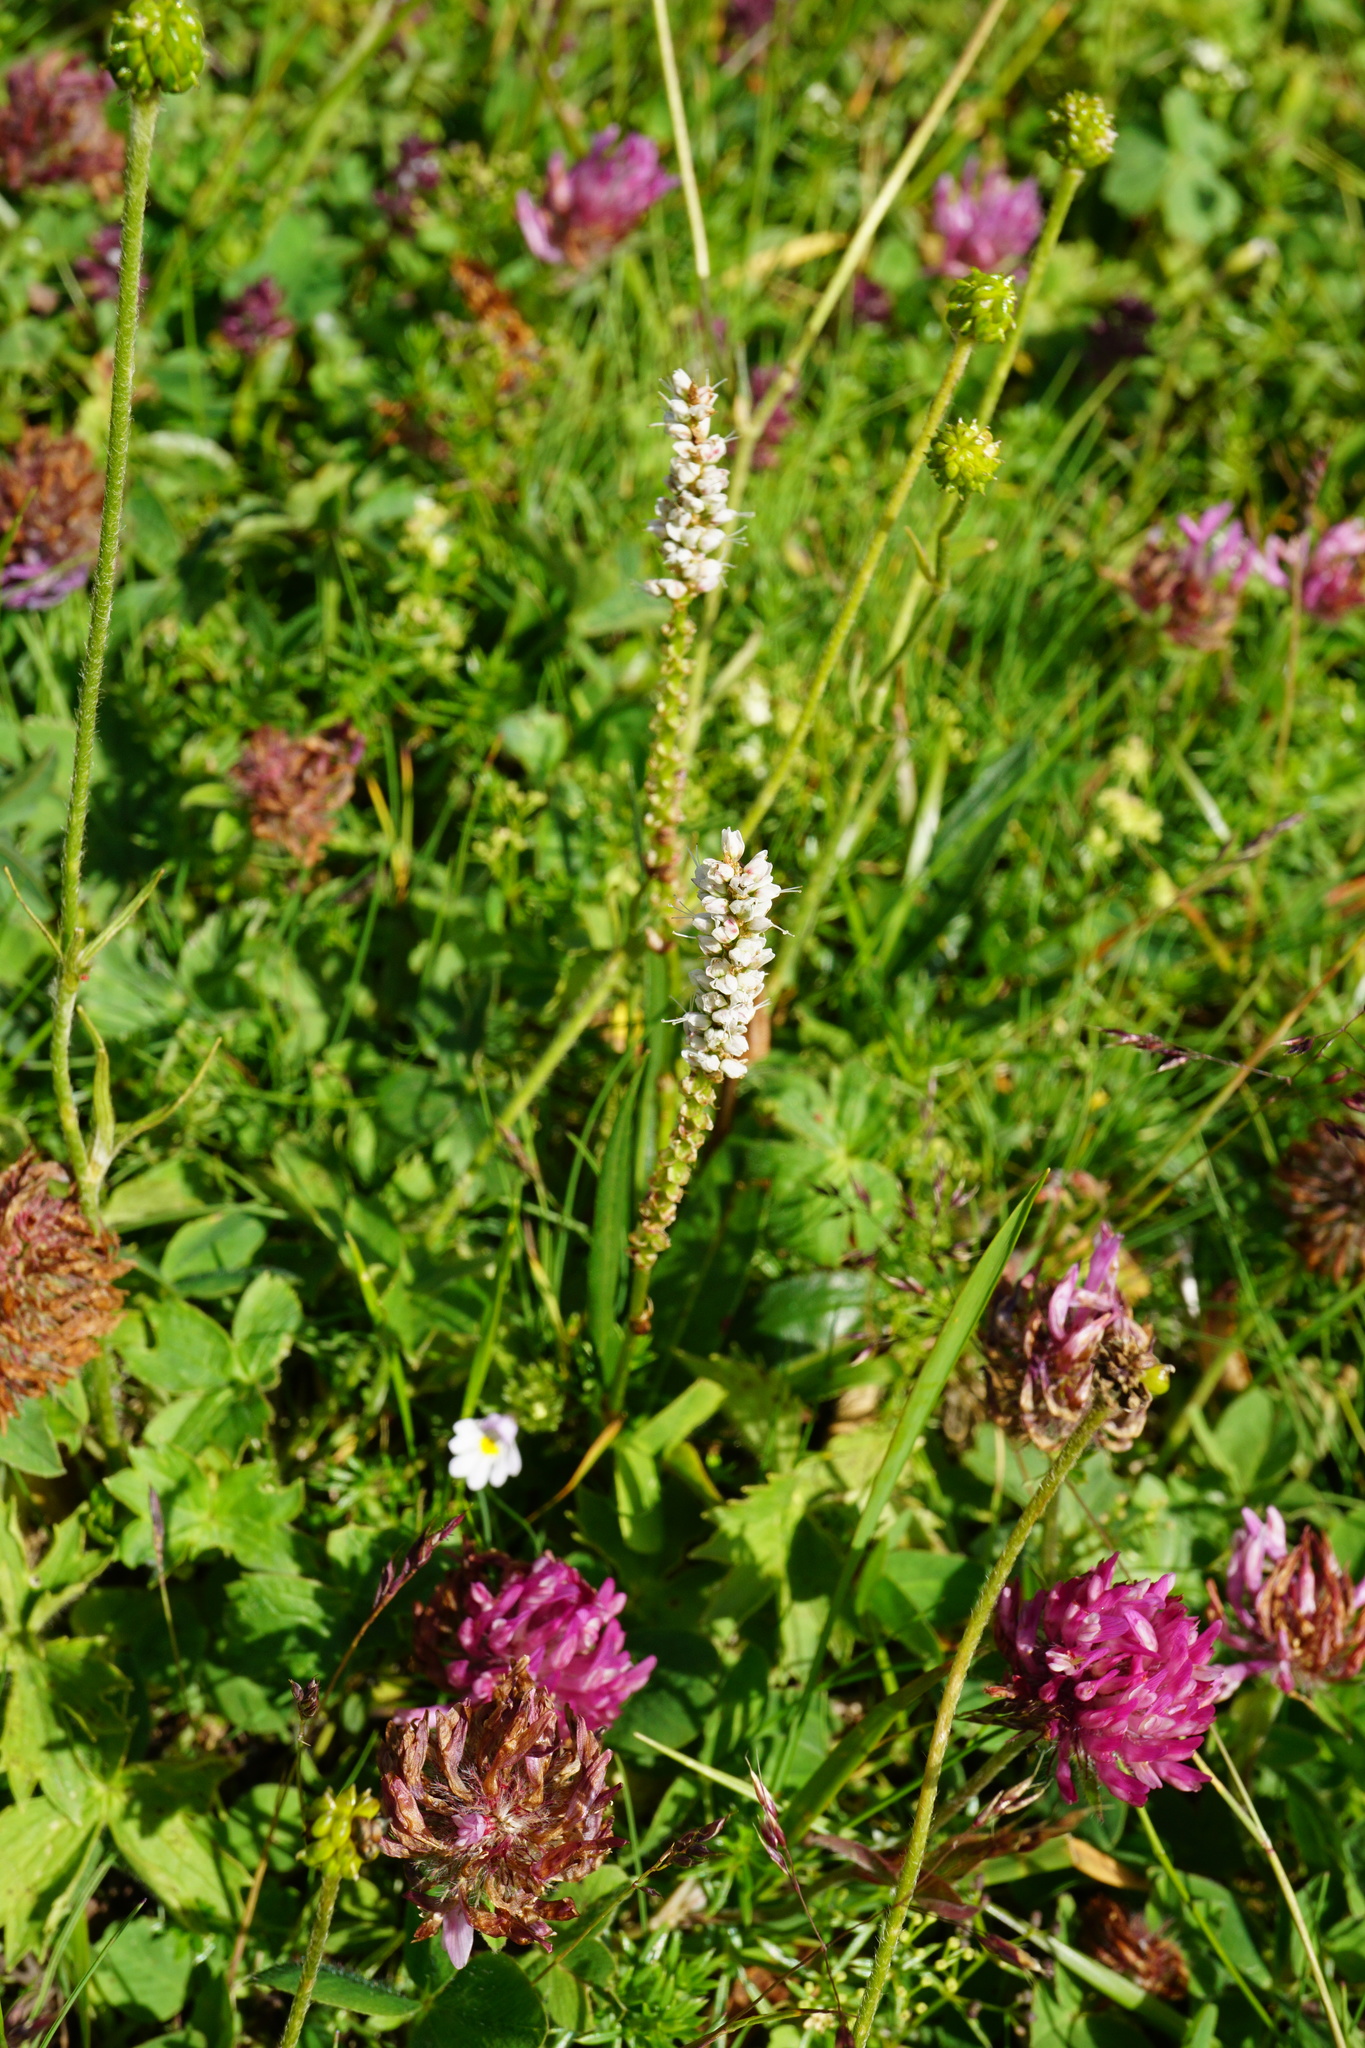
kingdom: Plantae
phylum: Tracheophyta
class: Magnoliopsida
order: Caryophyllales
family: Polygonaceae
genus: Bistorta
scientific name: Bistorta vivipara
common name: Alpine bistort
